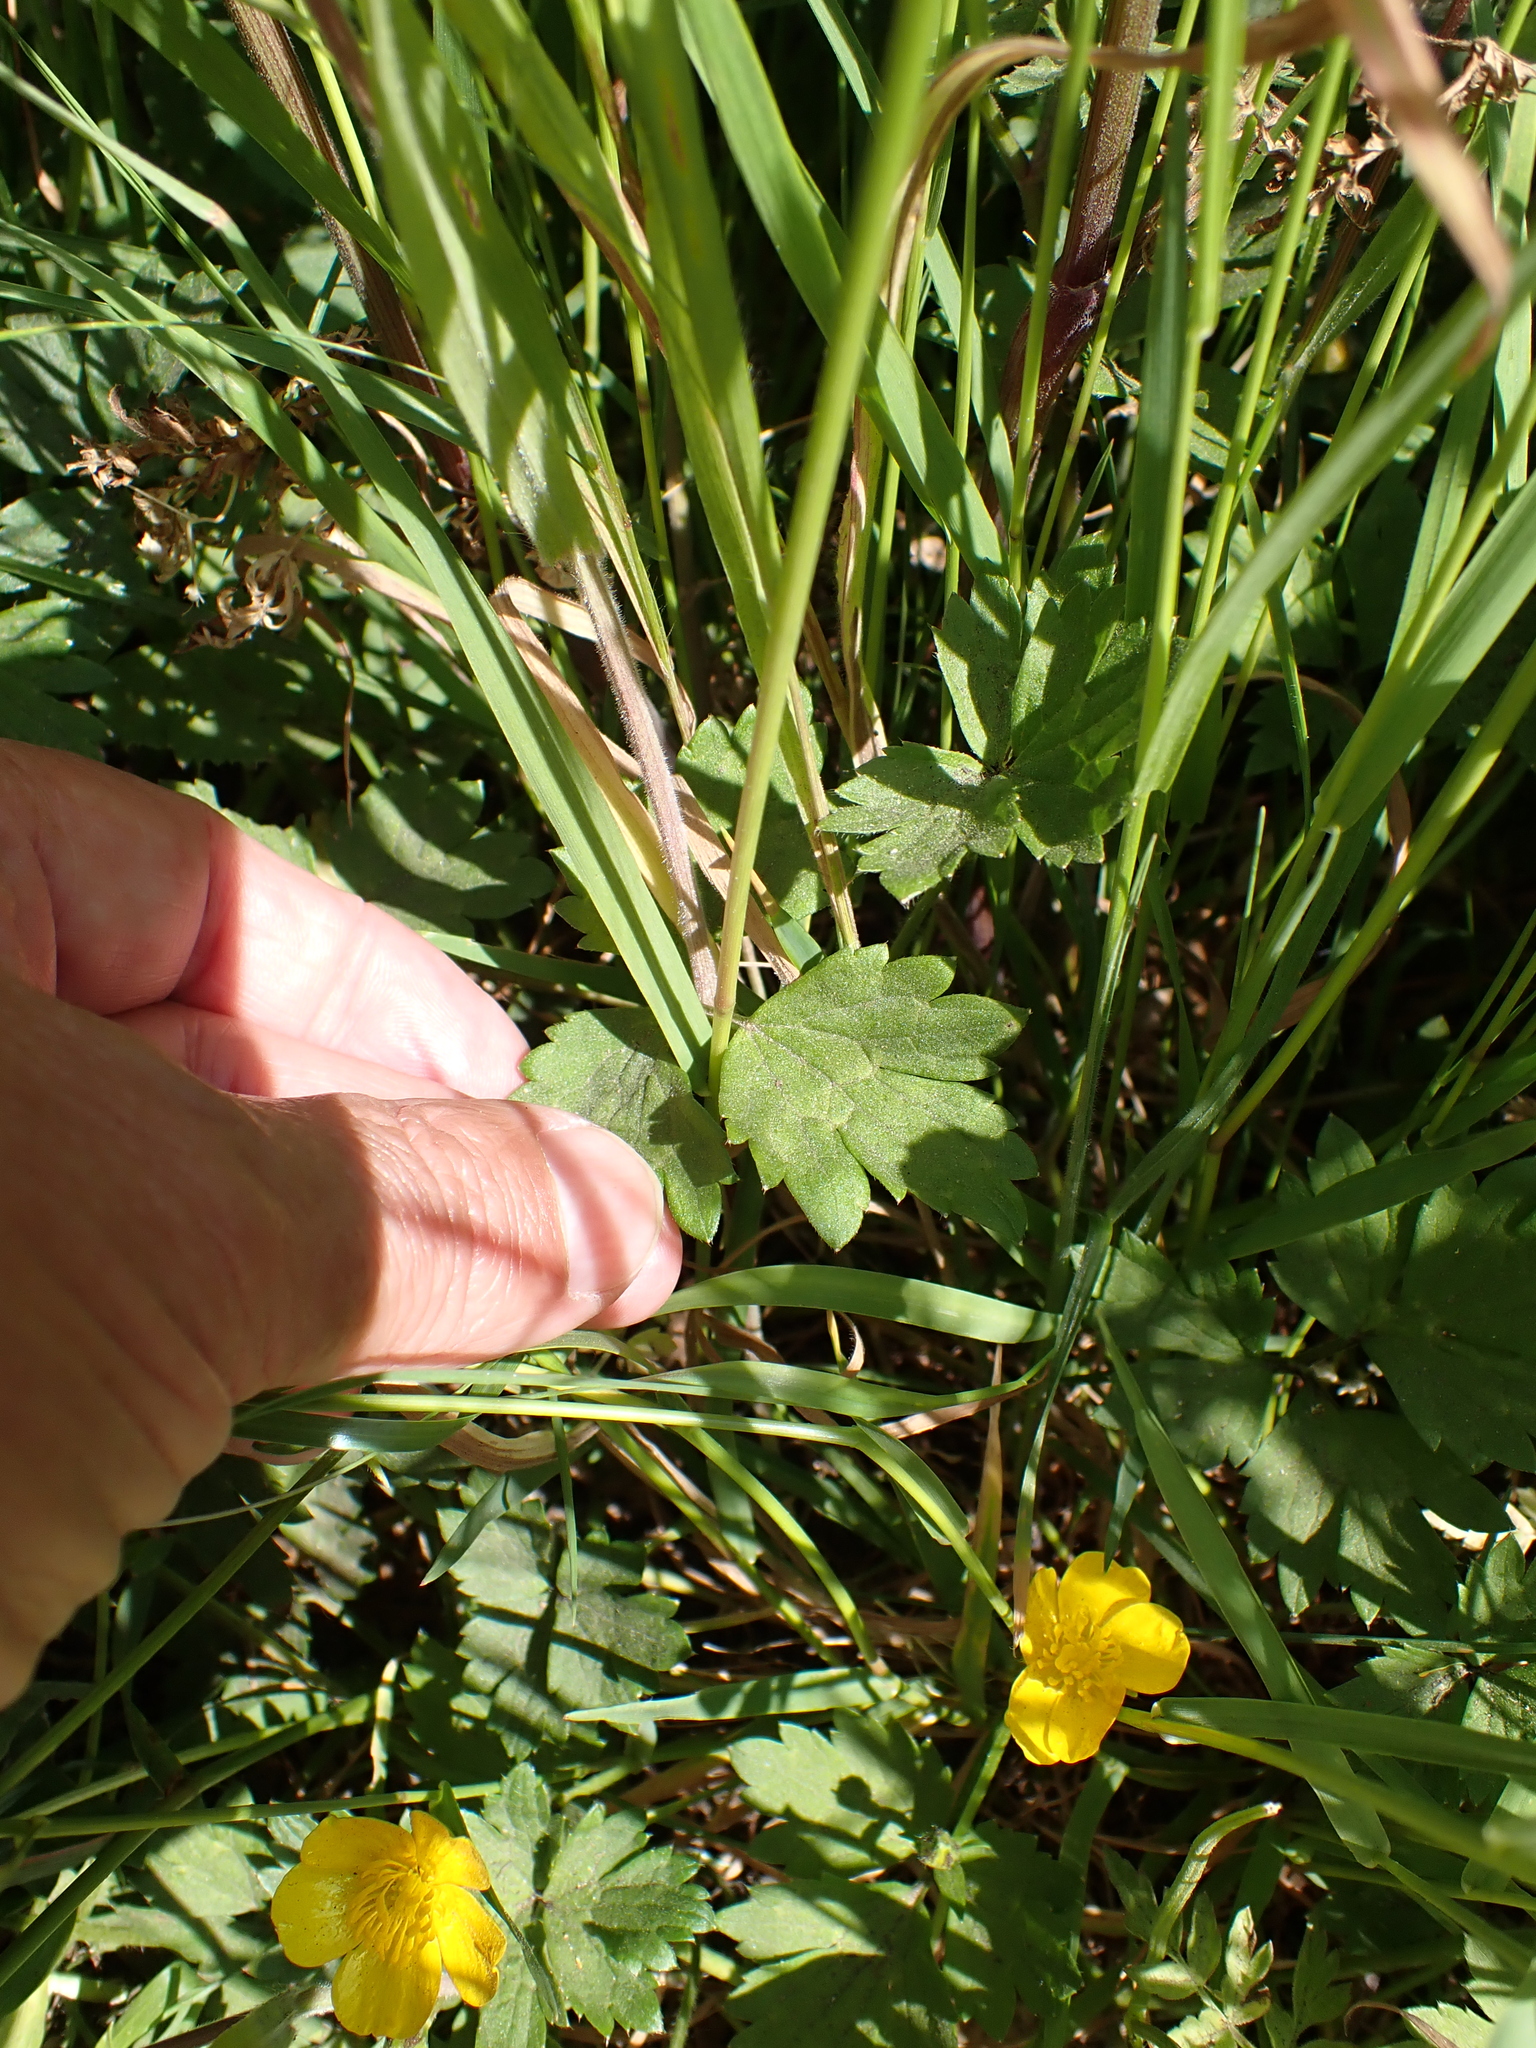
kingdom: Plantae
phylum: Tracheophyta
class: Magnoliopsida
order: Ranunculales
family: Ranunculaceae
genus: Ranunculus
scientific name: Ranunculus repens
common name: Creeping buttercup
